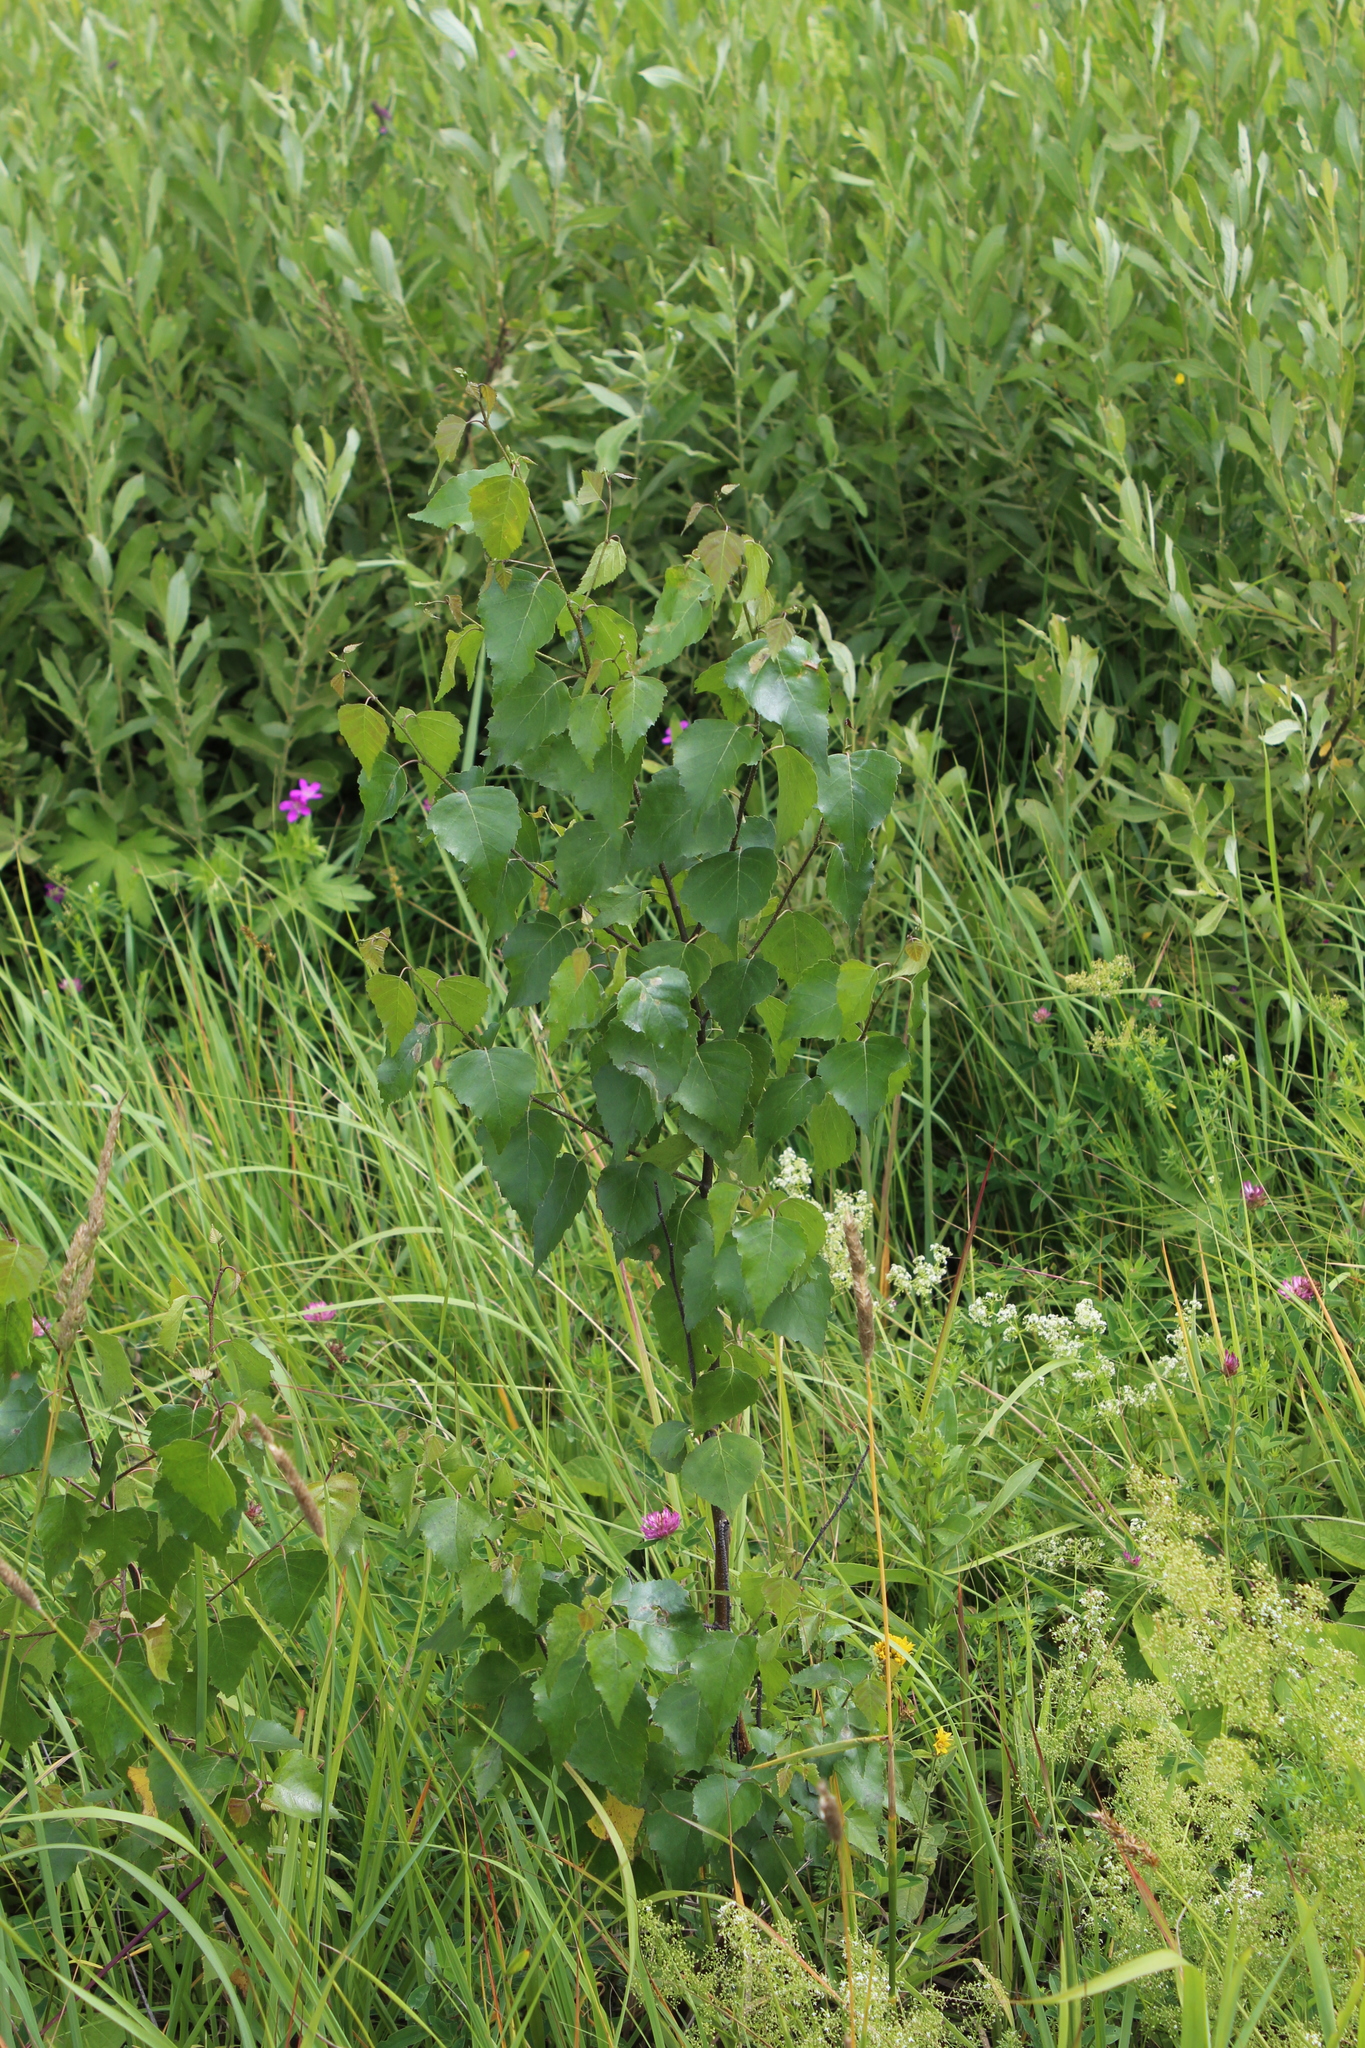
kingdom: Plantae
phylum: Tracheophyta
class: Magnoliopsida
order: Fagales
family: Betulaceae
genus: Betula
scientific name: Betula pendula
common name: Silver birch
